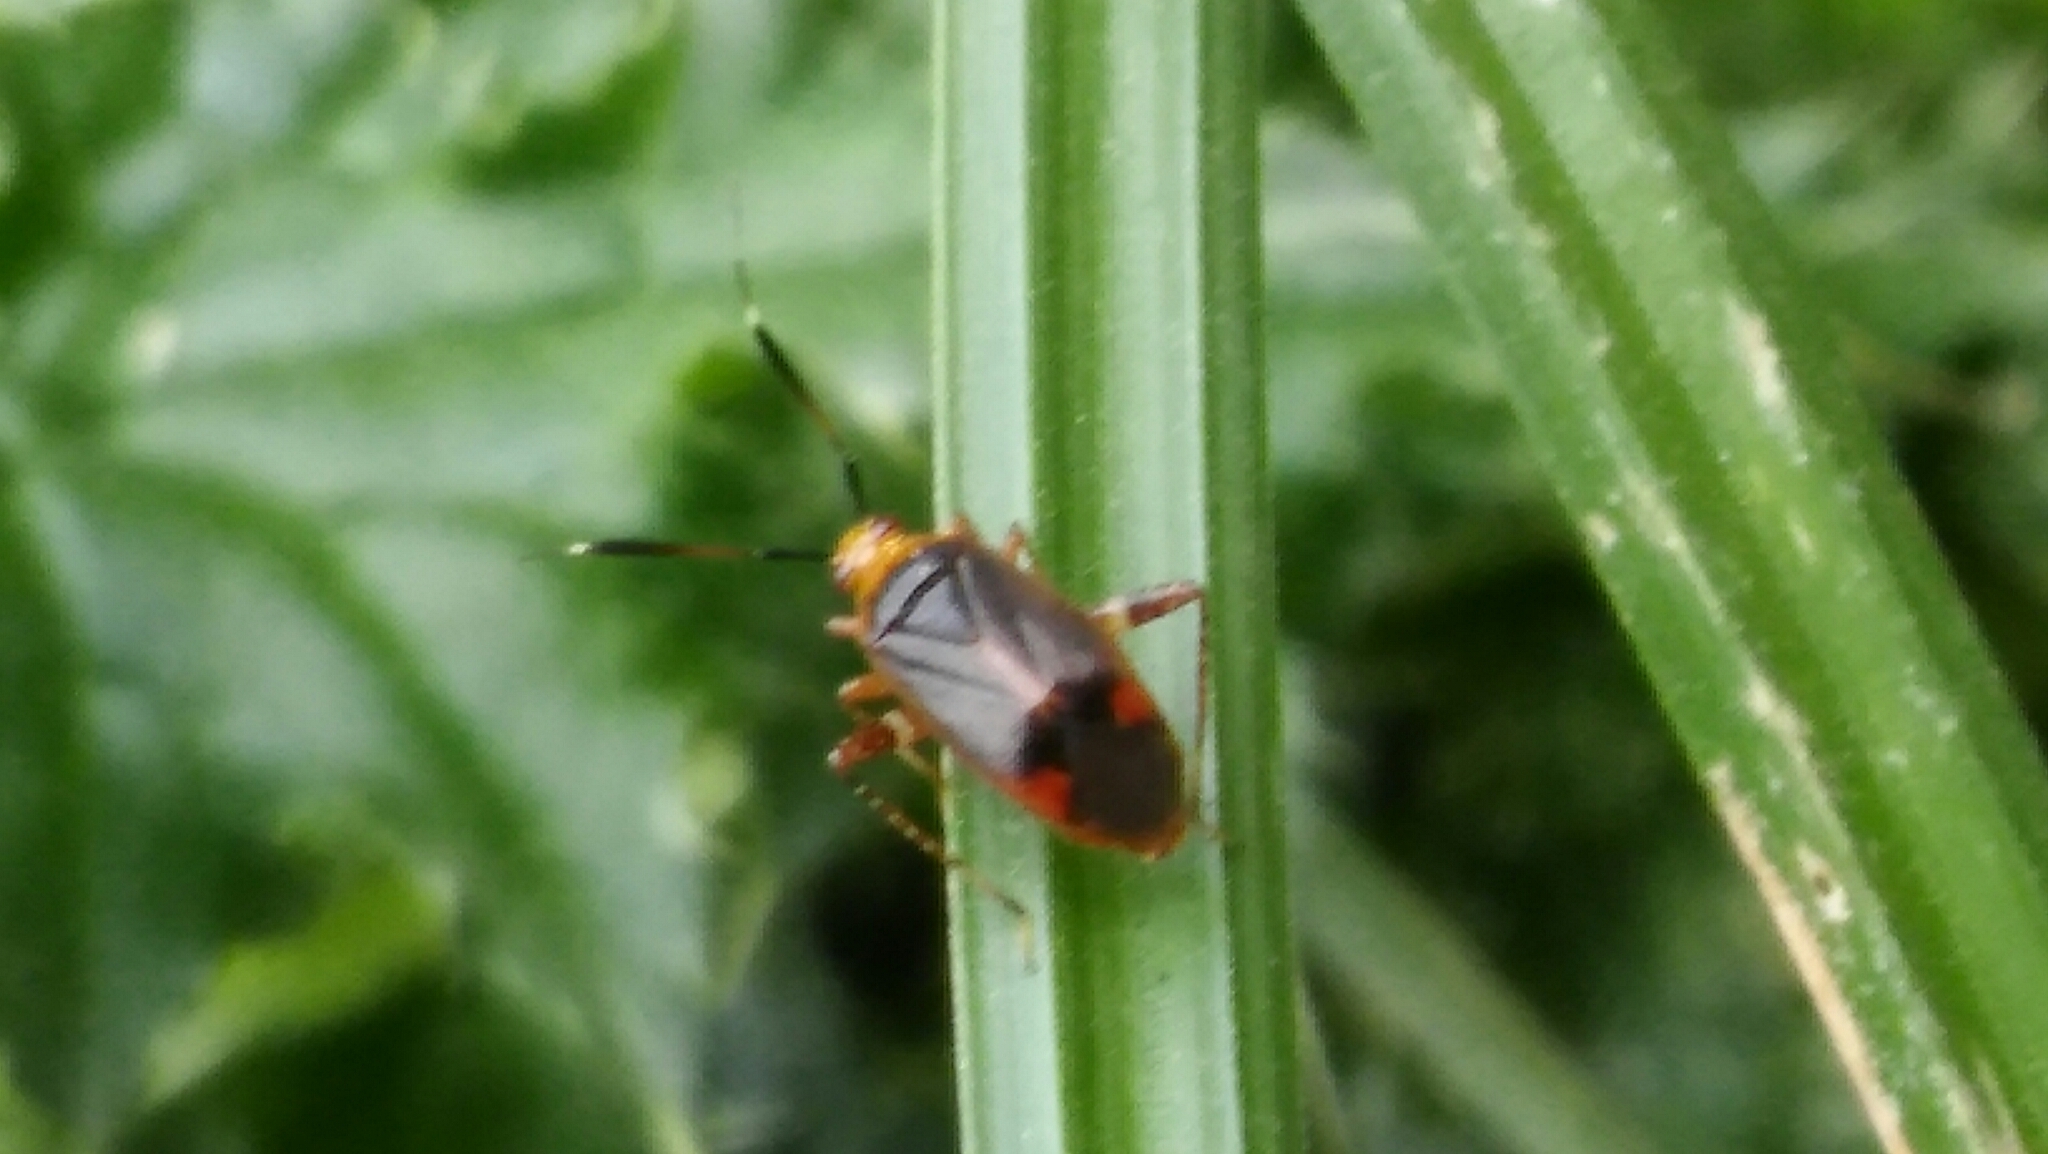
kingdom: Animalia
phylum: Arthropoda
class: Insecta
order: Hemiptera
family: Miridae
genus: Horciasinus
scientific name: Horciasinus argentinus
